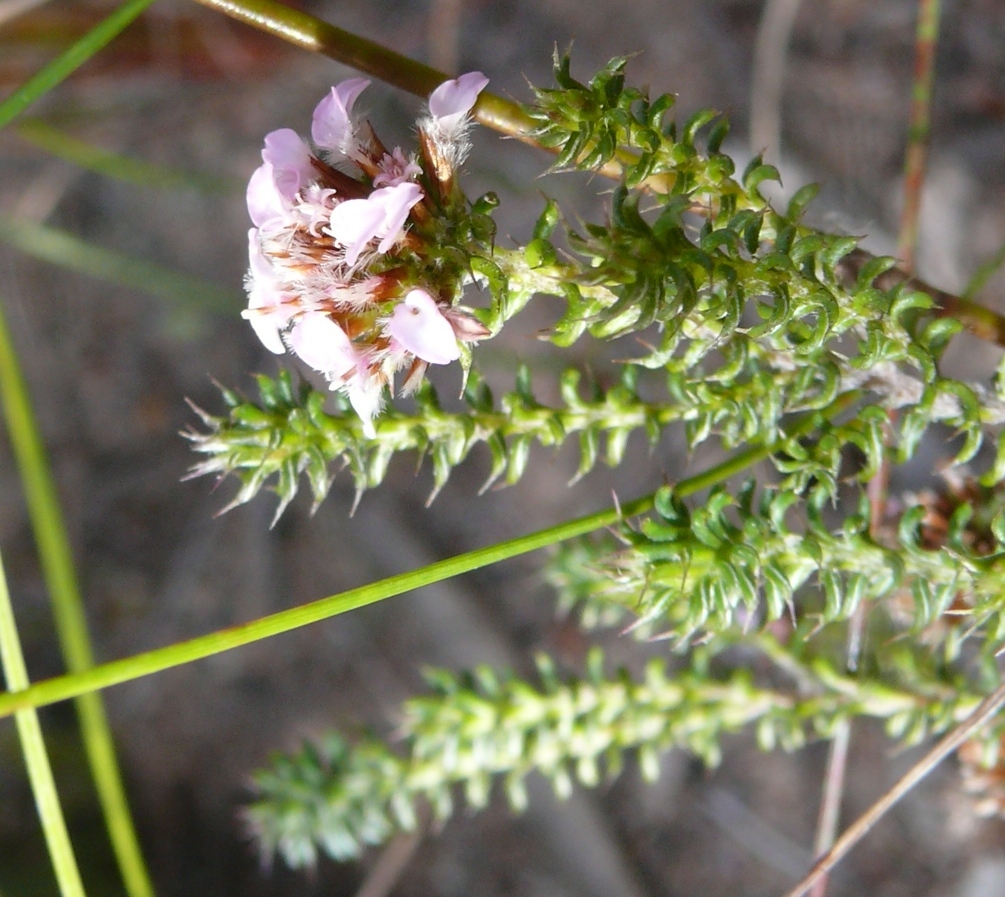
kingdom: Plantae
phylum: Tracheophyta
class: Magnoliopsida
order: Asterales
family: Asteraceae
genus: Disparago
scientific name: Disparago tortilis
